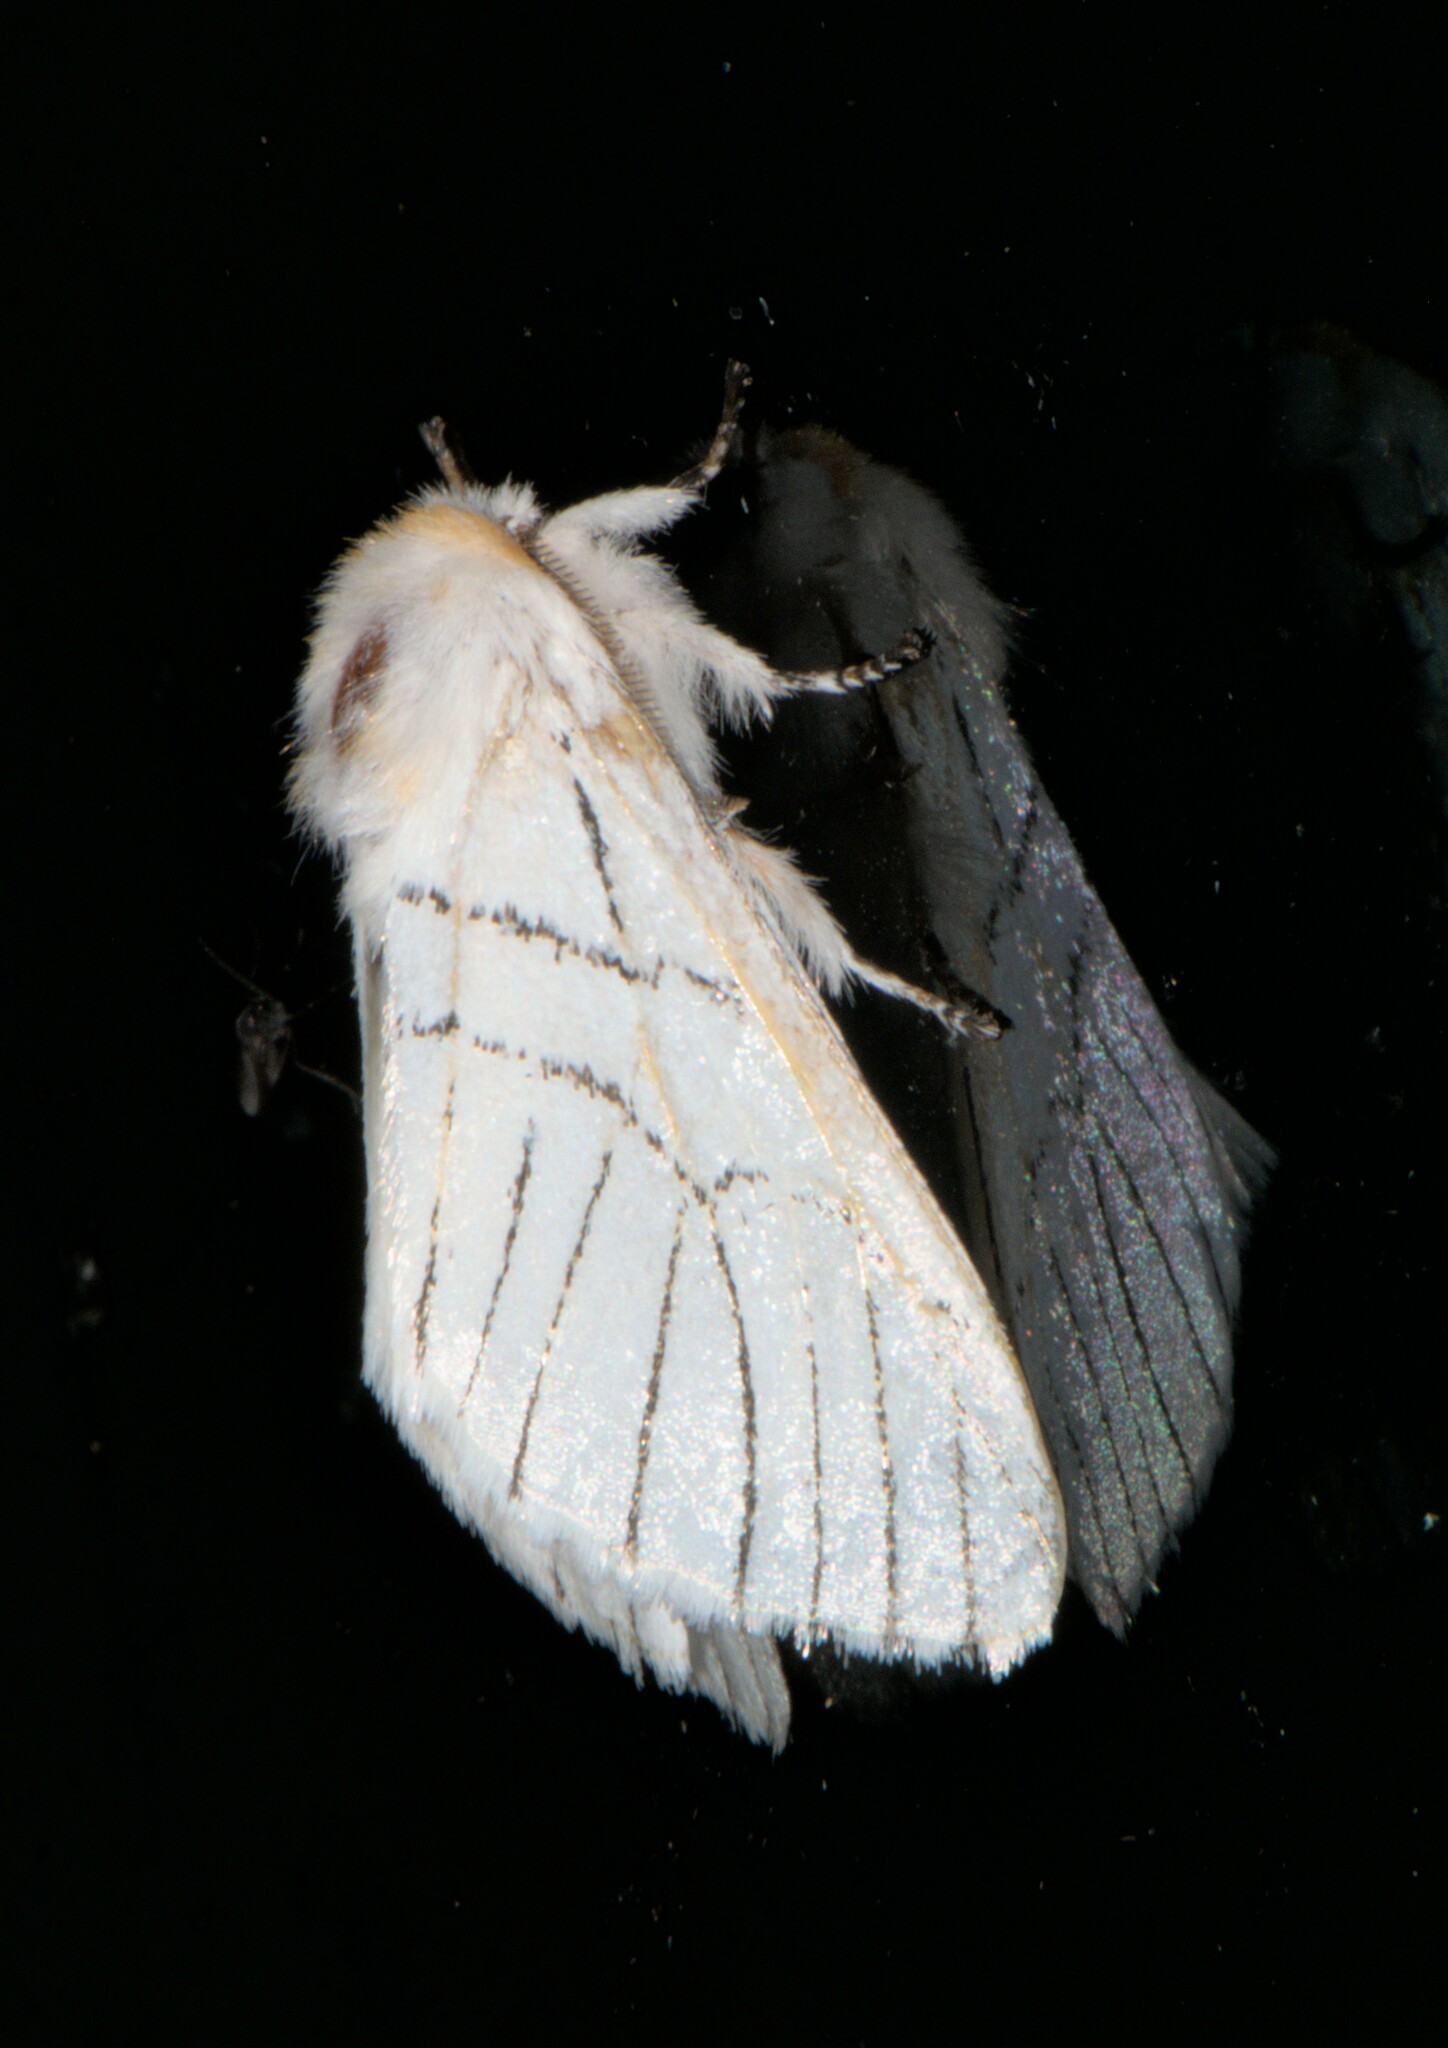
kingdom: Animalia
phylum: Arthropoda
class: Insecta
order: Lepidoptera
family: Notodontidae
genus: Oligoclona
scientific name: Oligoclona chrysolopha
